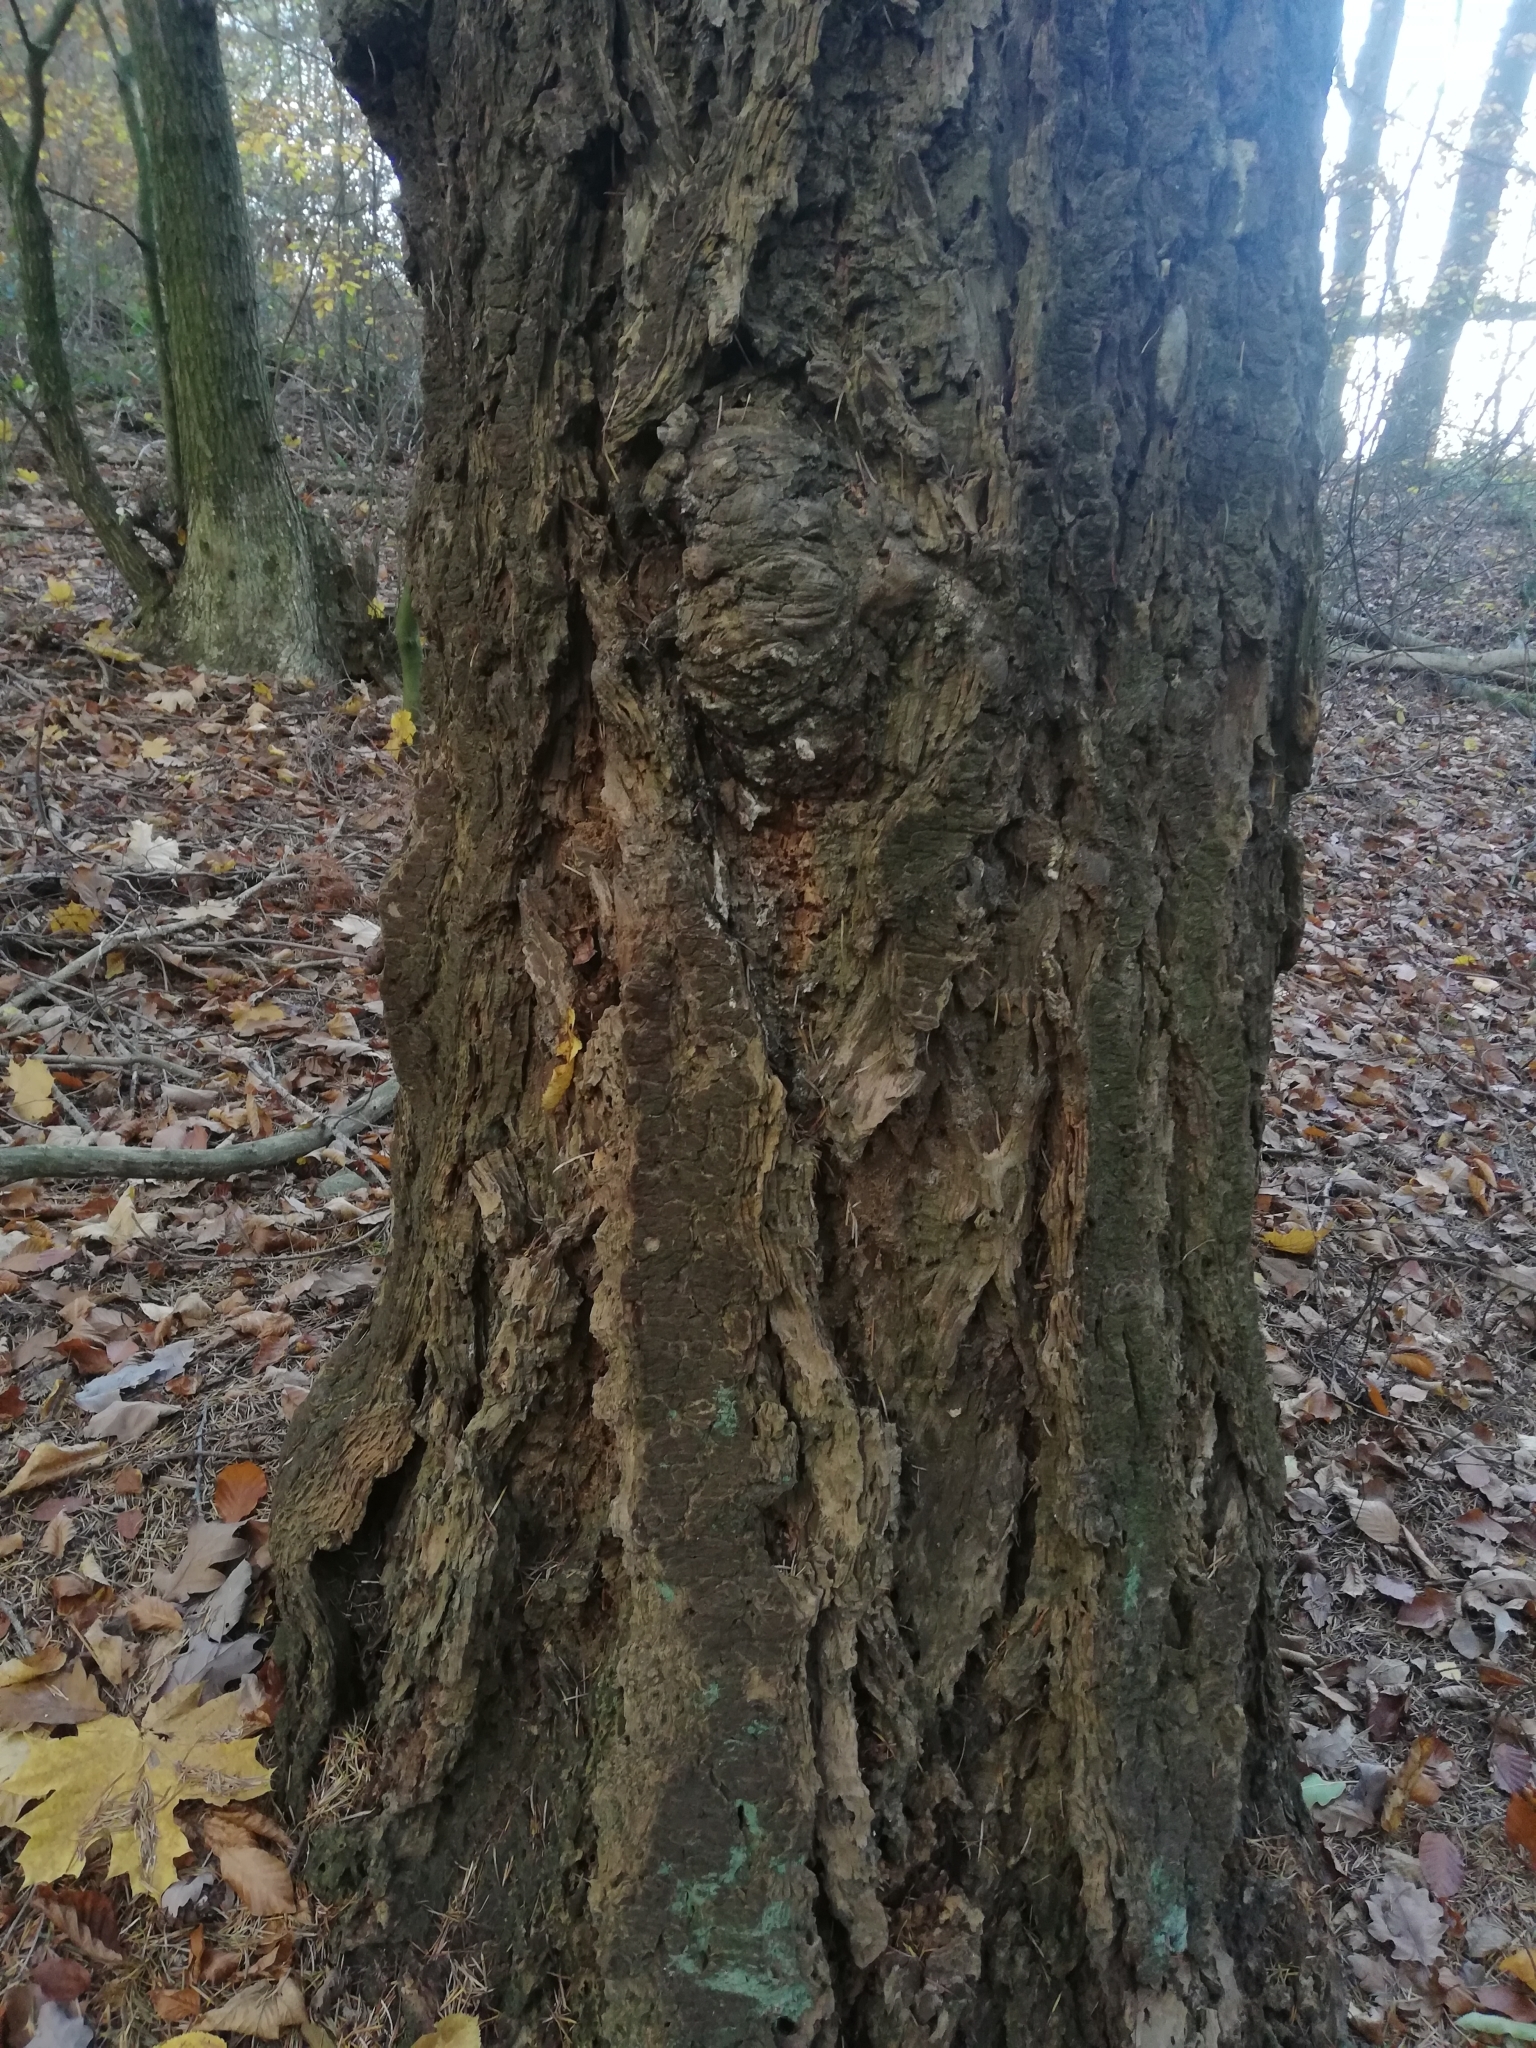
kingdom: Plantae
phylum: Tracheophyta
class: Pinopsida
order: Pinales
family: Pinaceae
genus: Pseudotsuga
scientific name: Pseudotsuga menziesii
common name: Douglas fir
